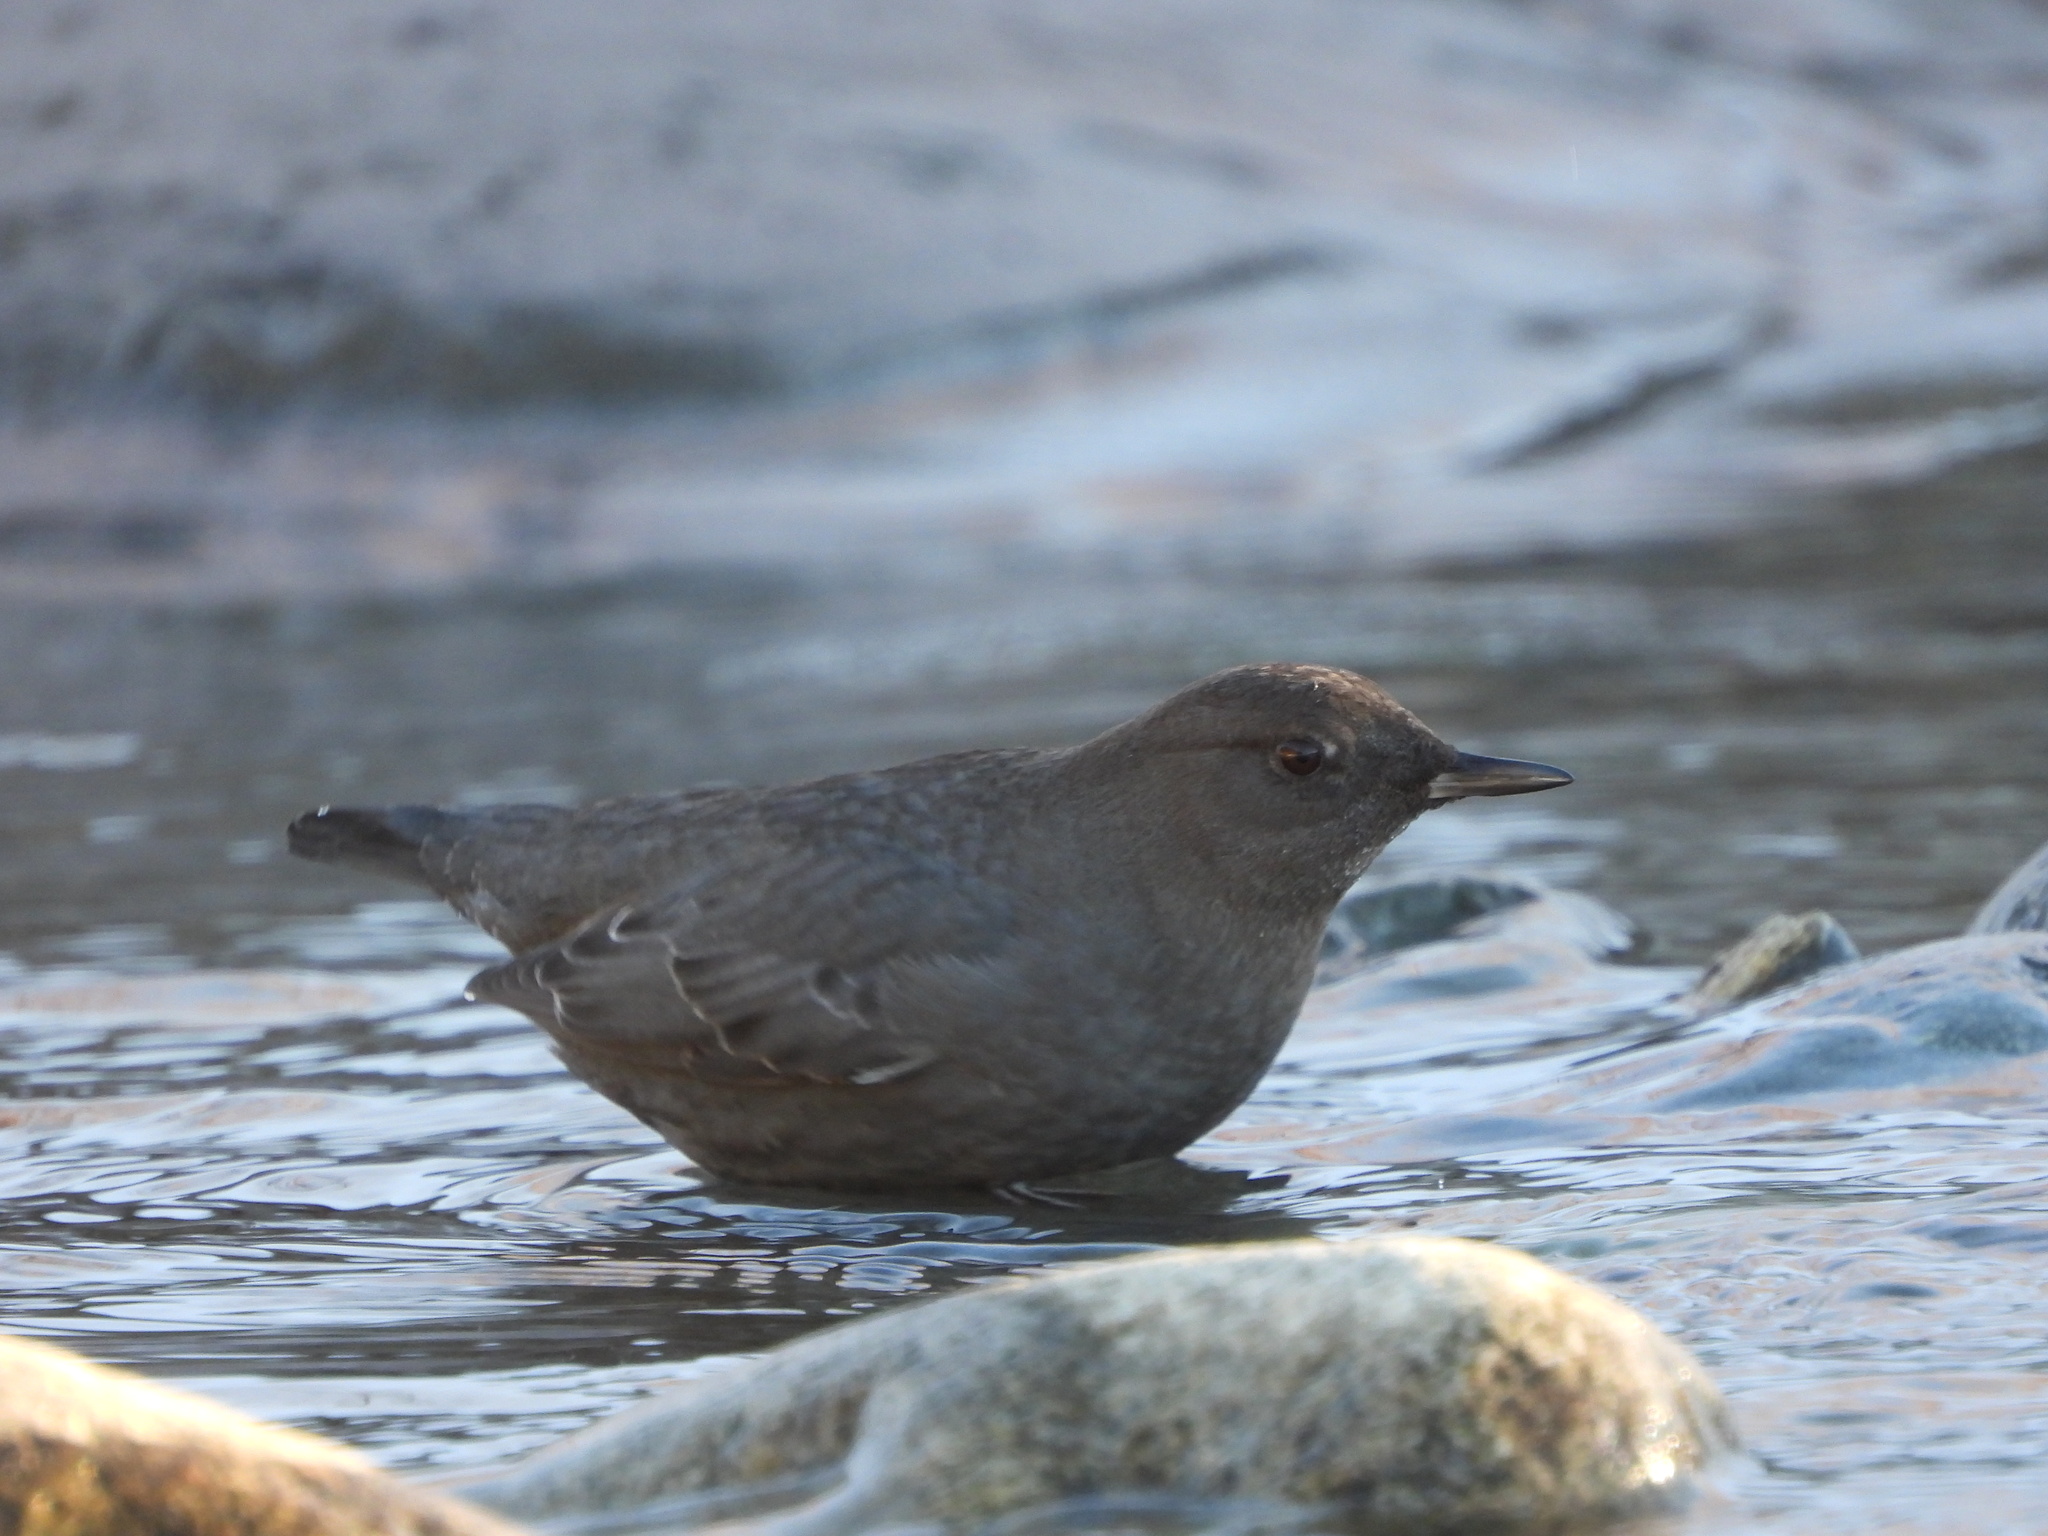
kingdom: Animalia
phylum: Chordata
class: Aves
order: Passeriformes
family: Cinclidae
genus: Cinclus
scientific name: Cinclus mexicanus
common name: American dipper
